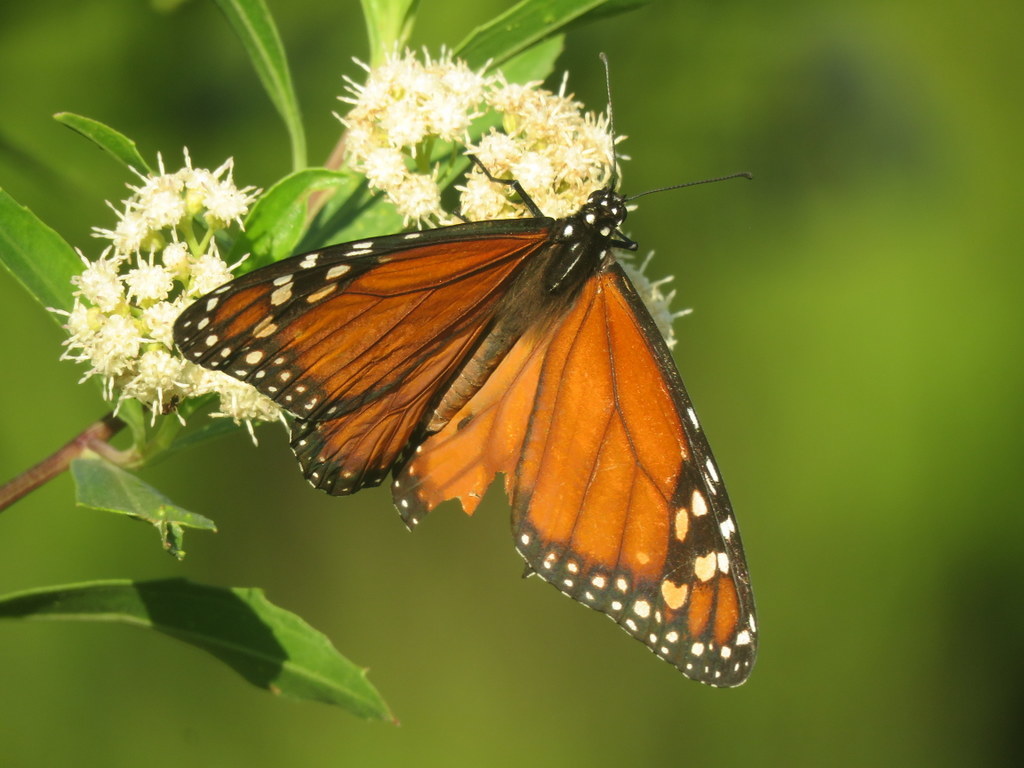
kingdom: Animalia
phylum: Arthropoda
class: Insecta
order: Lepidoptera
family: Nymphalidae
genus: Danaus
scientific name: Danaus erippus
